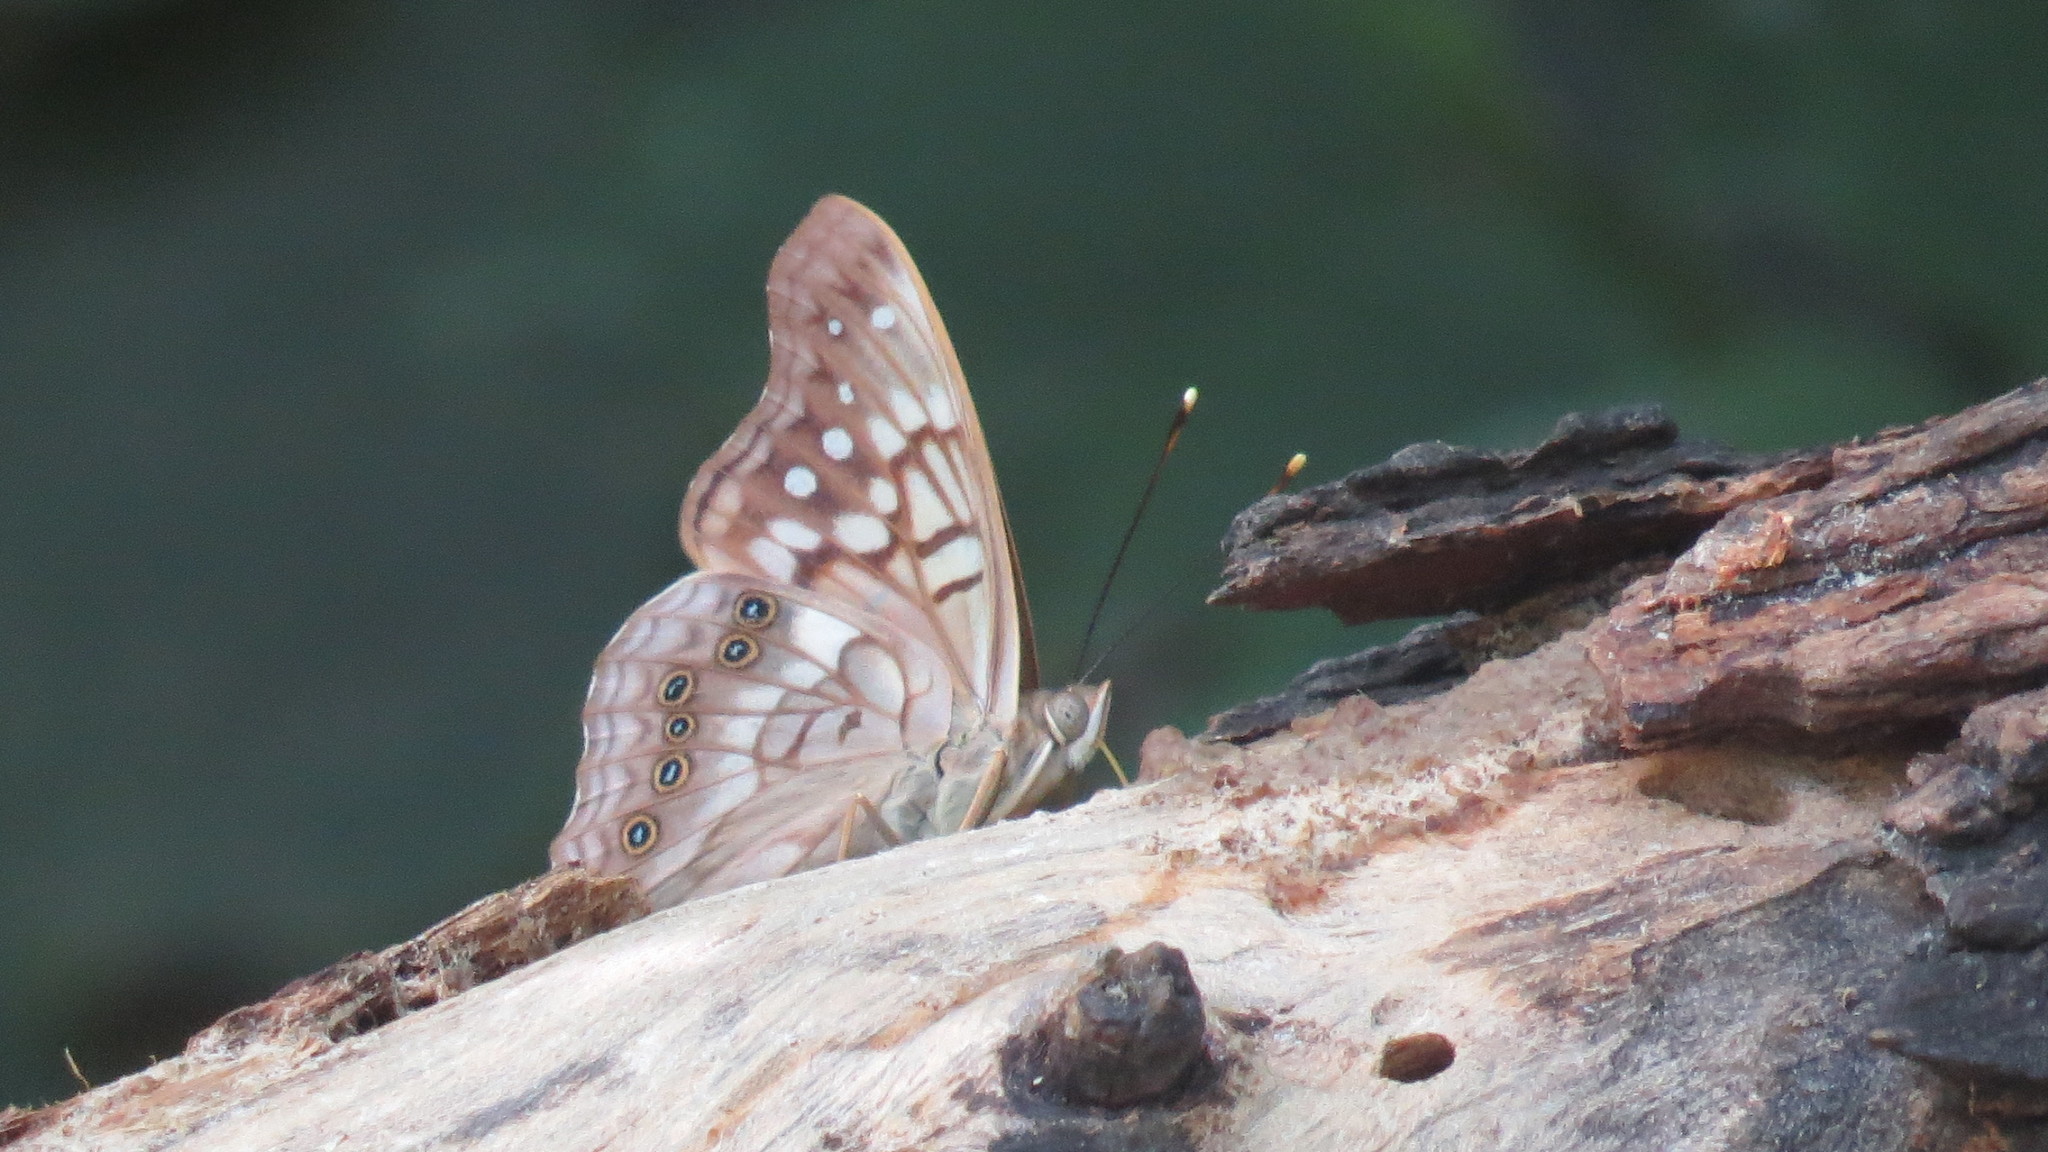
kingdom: Animalia
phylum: Arthropoda
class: Insecta
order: Lepidoptera
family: Nymphalidae
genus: Asterocampa
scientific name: Asterocampa clyton
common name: Tawny emperor
